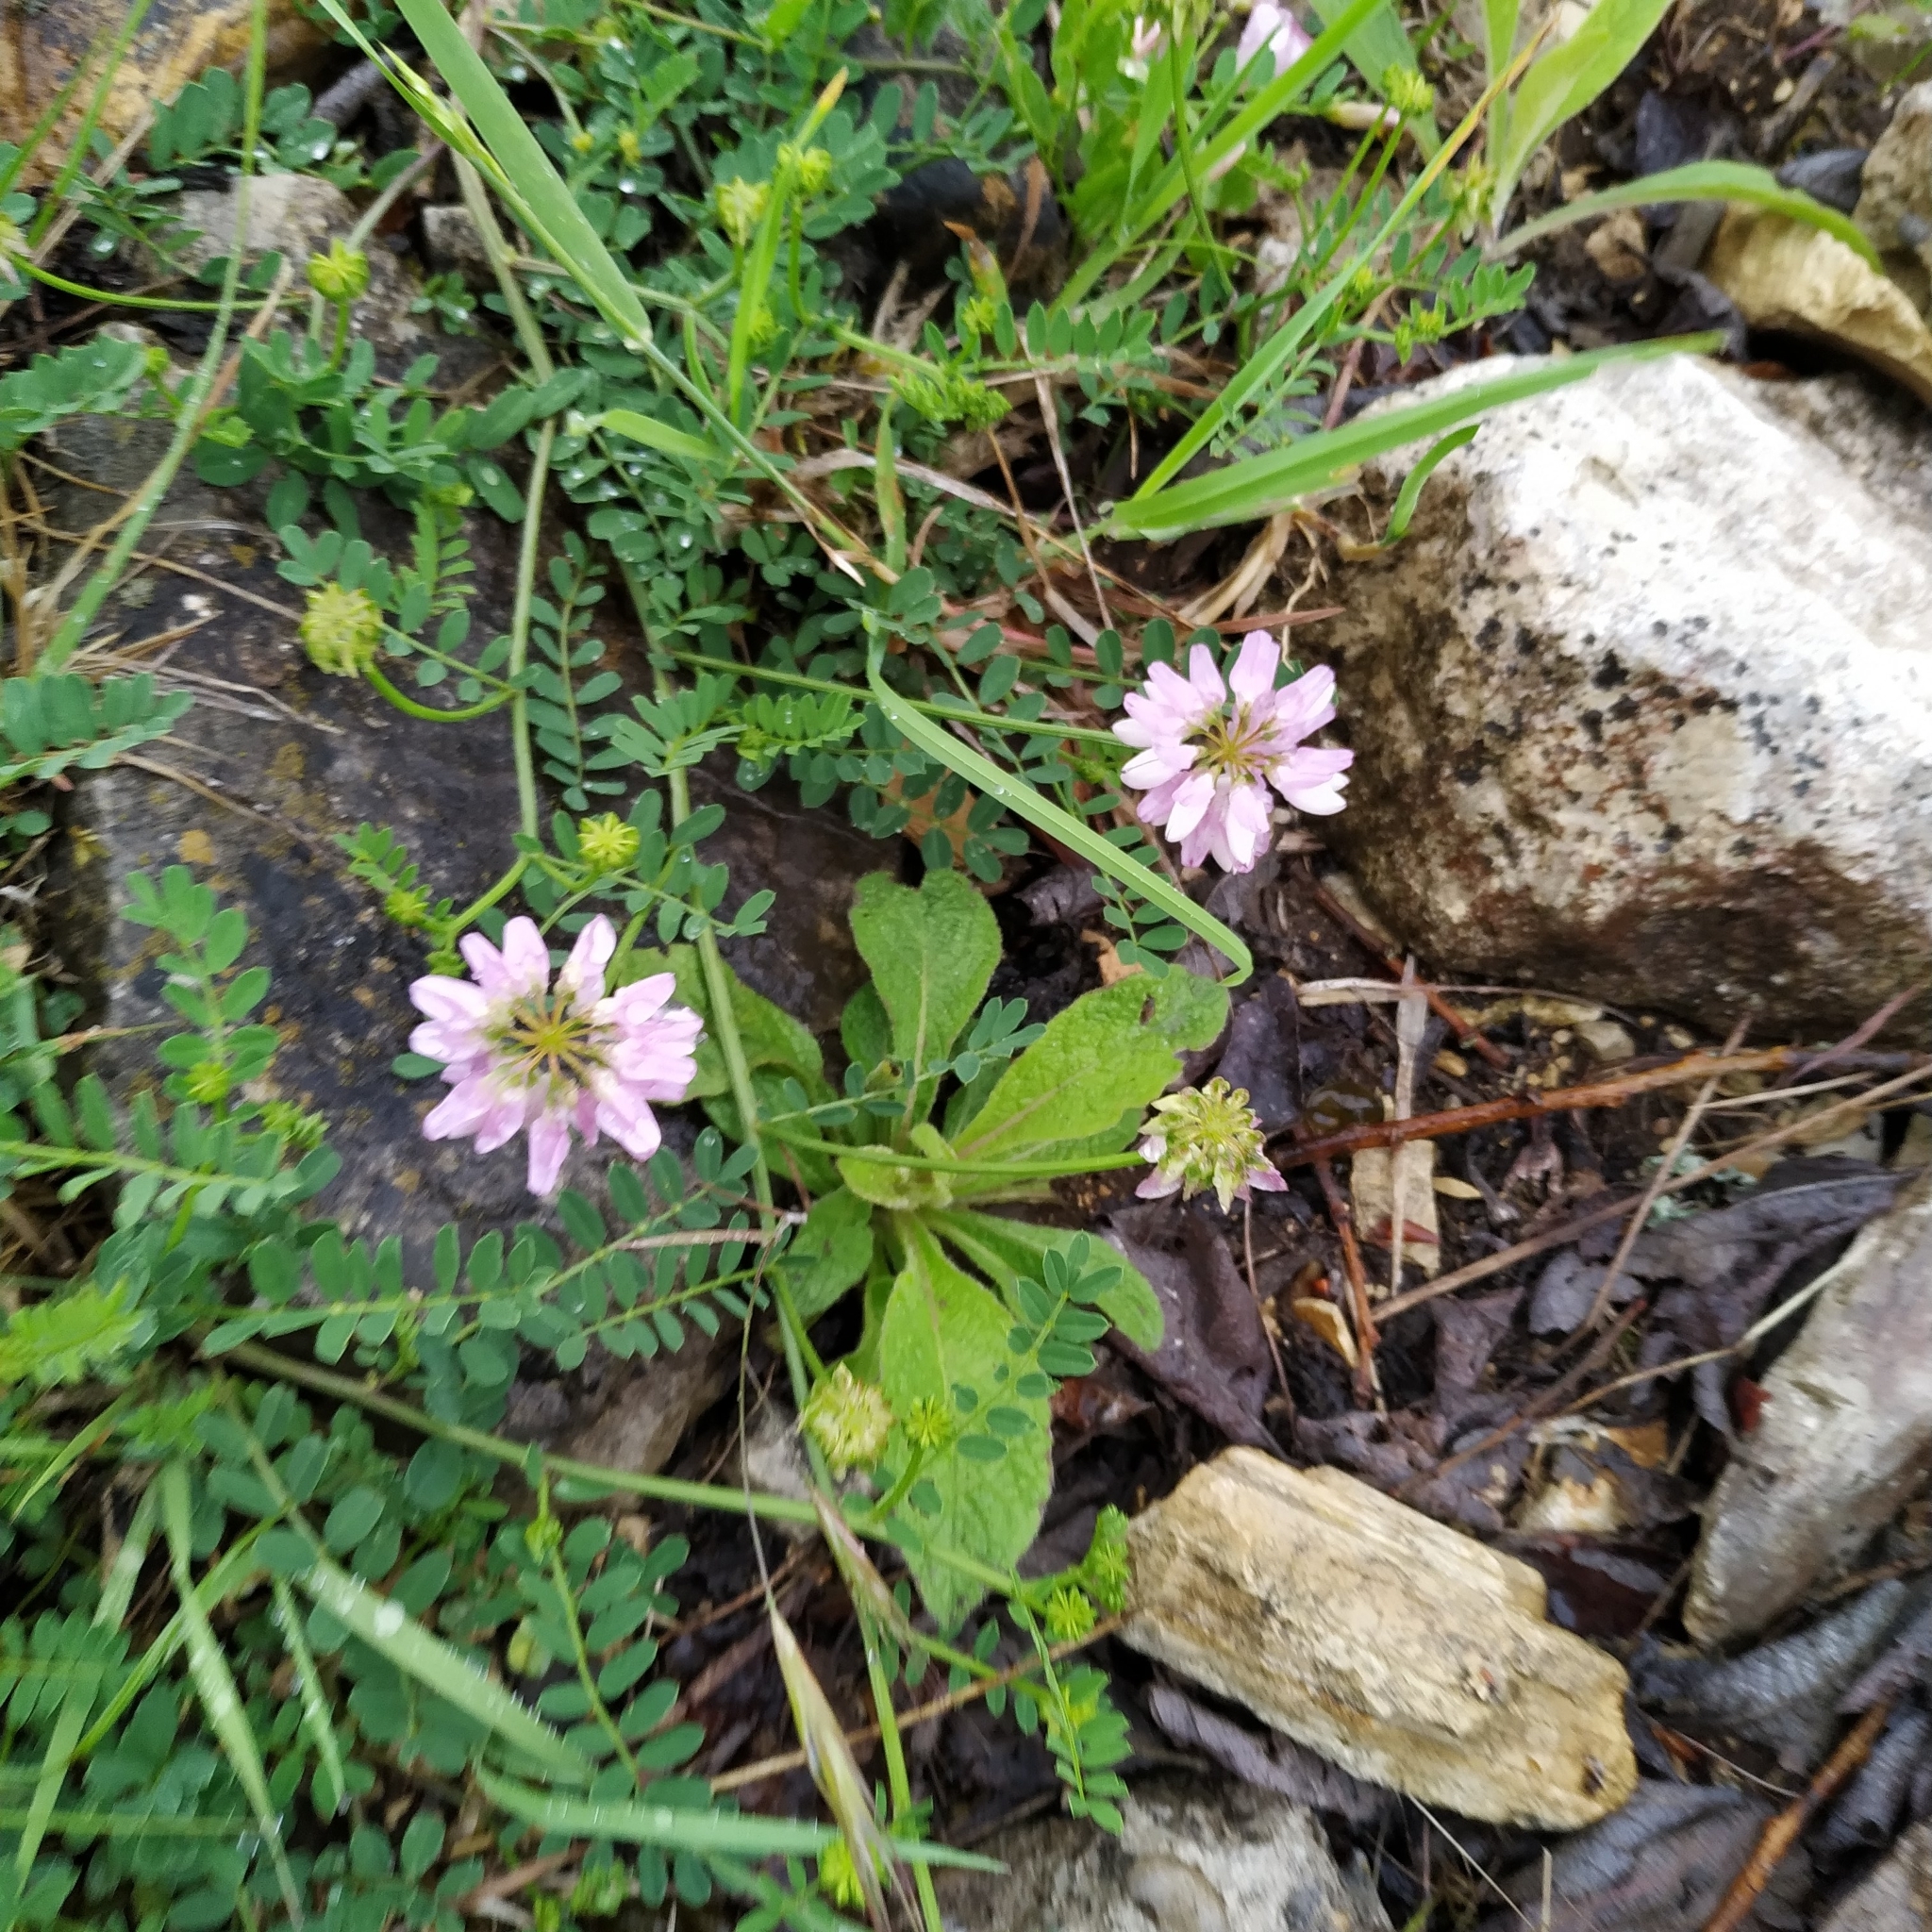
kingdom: Plantae
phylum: Tracheophyta
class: Magnoliopsida
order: Fabales
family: Fabaceae
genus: Coronilla
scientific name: Coronilla varia
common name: Crownvetch
